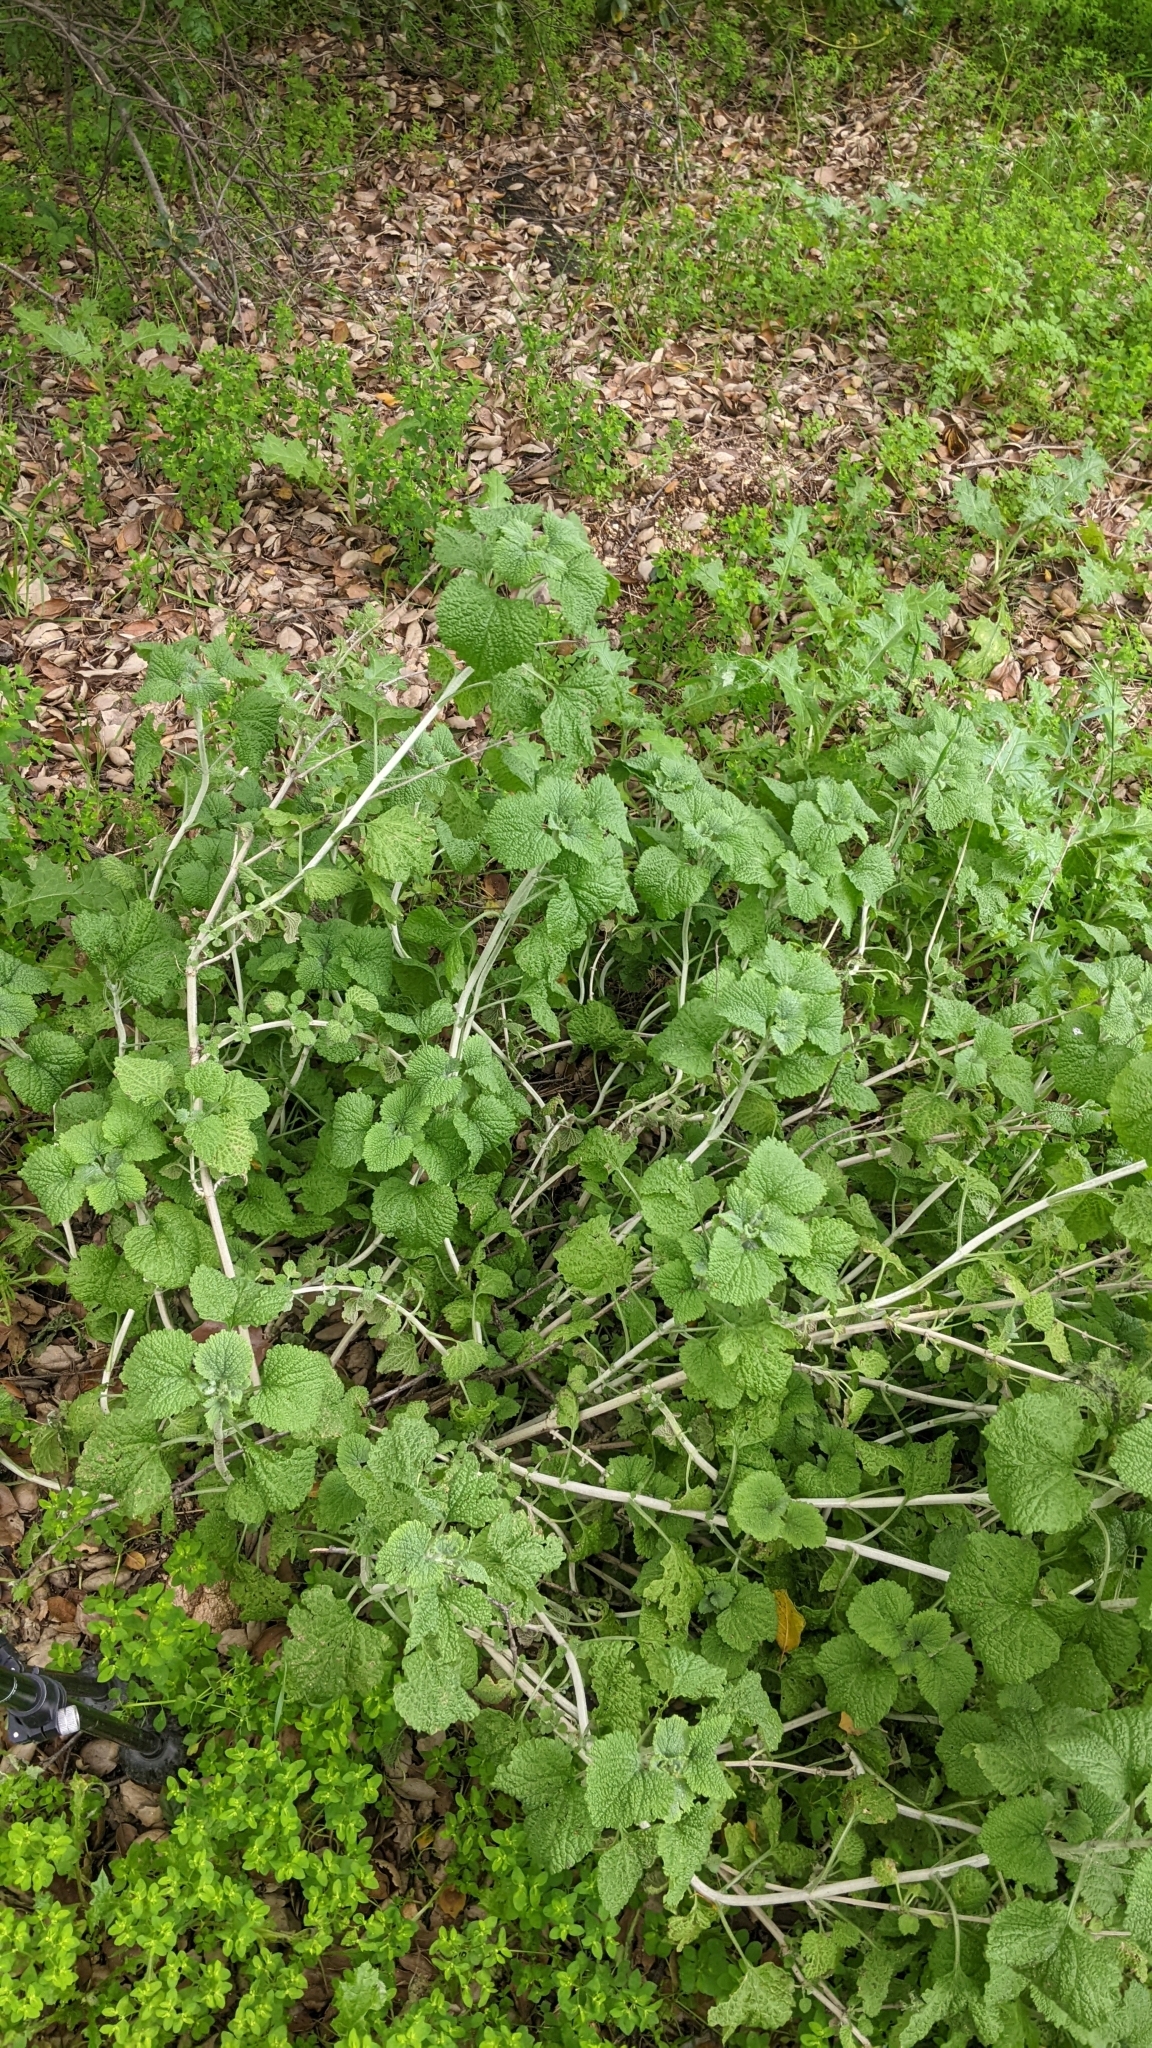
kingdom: Plantae
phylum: Tracheophyta
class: Magnoliopsida
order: Lamiales
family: Lamiaceae
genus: Marrubium
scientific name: Marrubium vulgare
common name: Horehound
